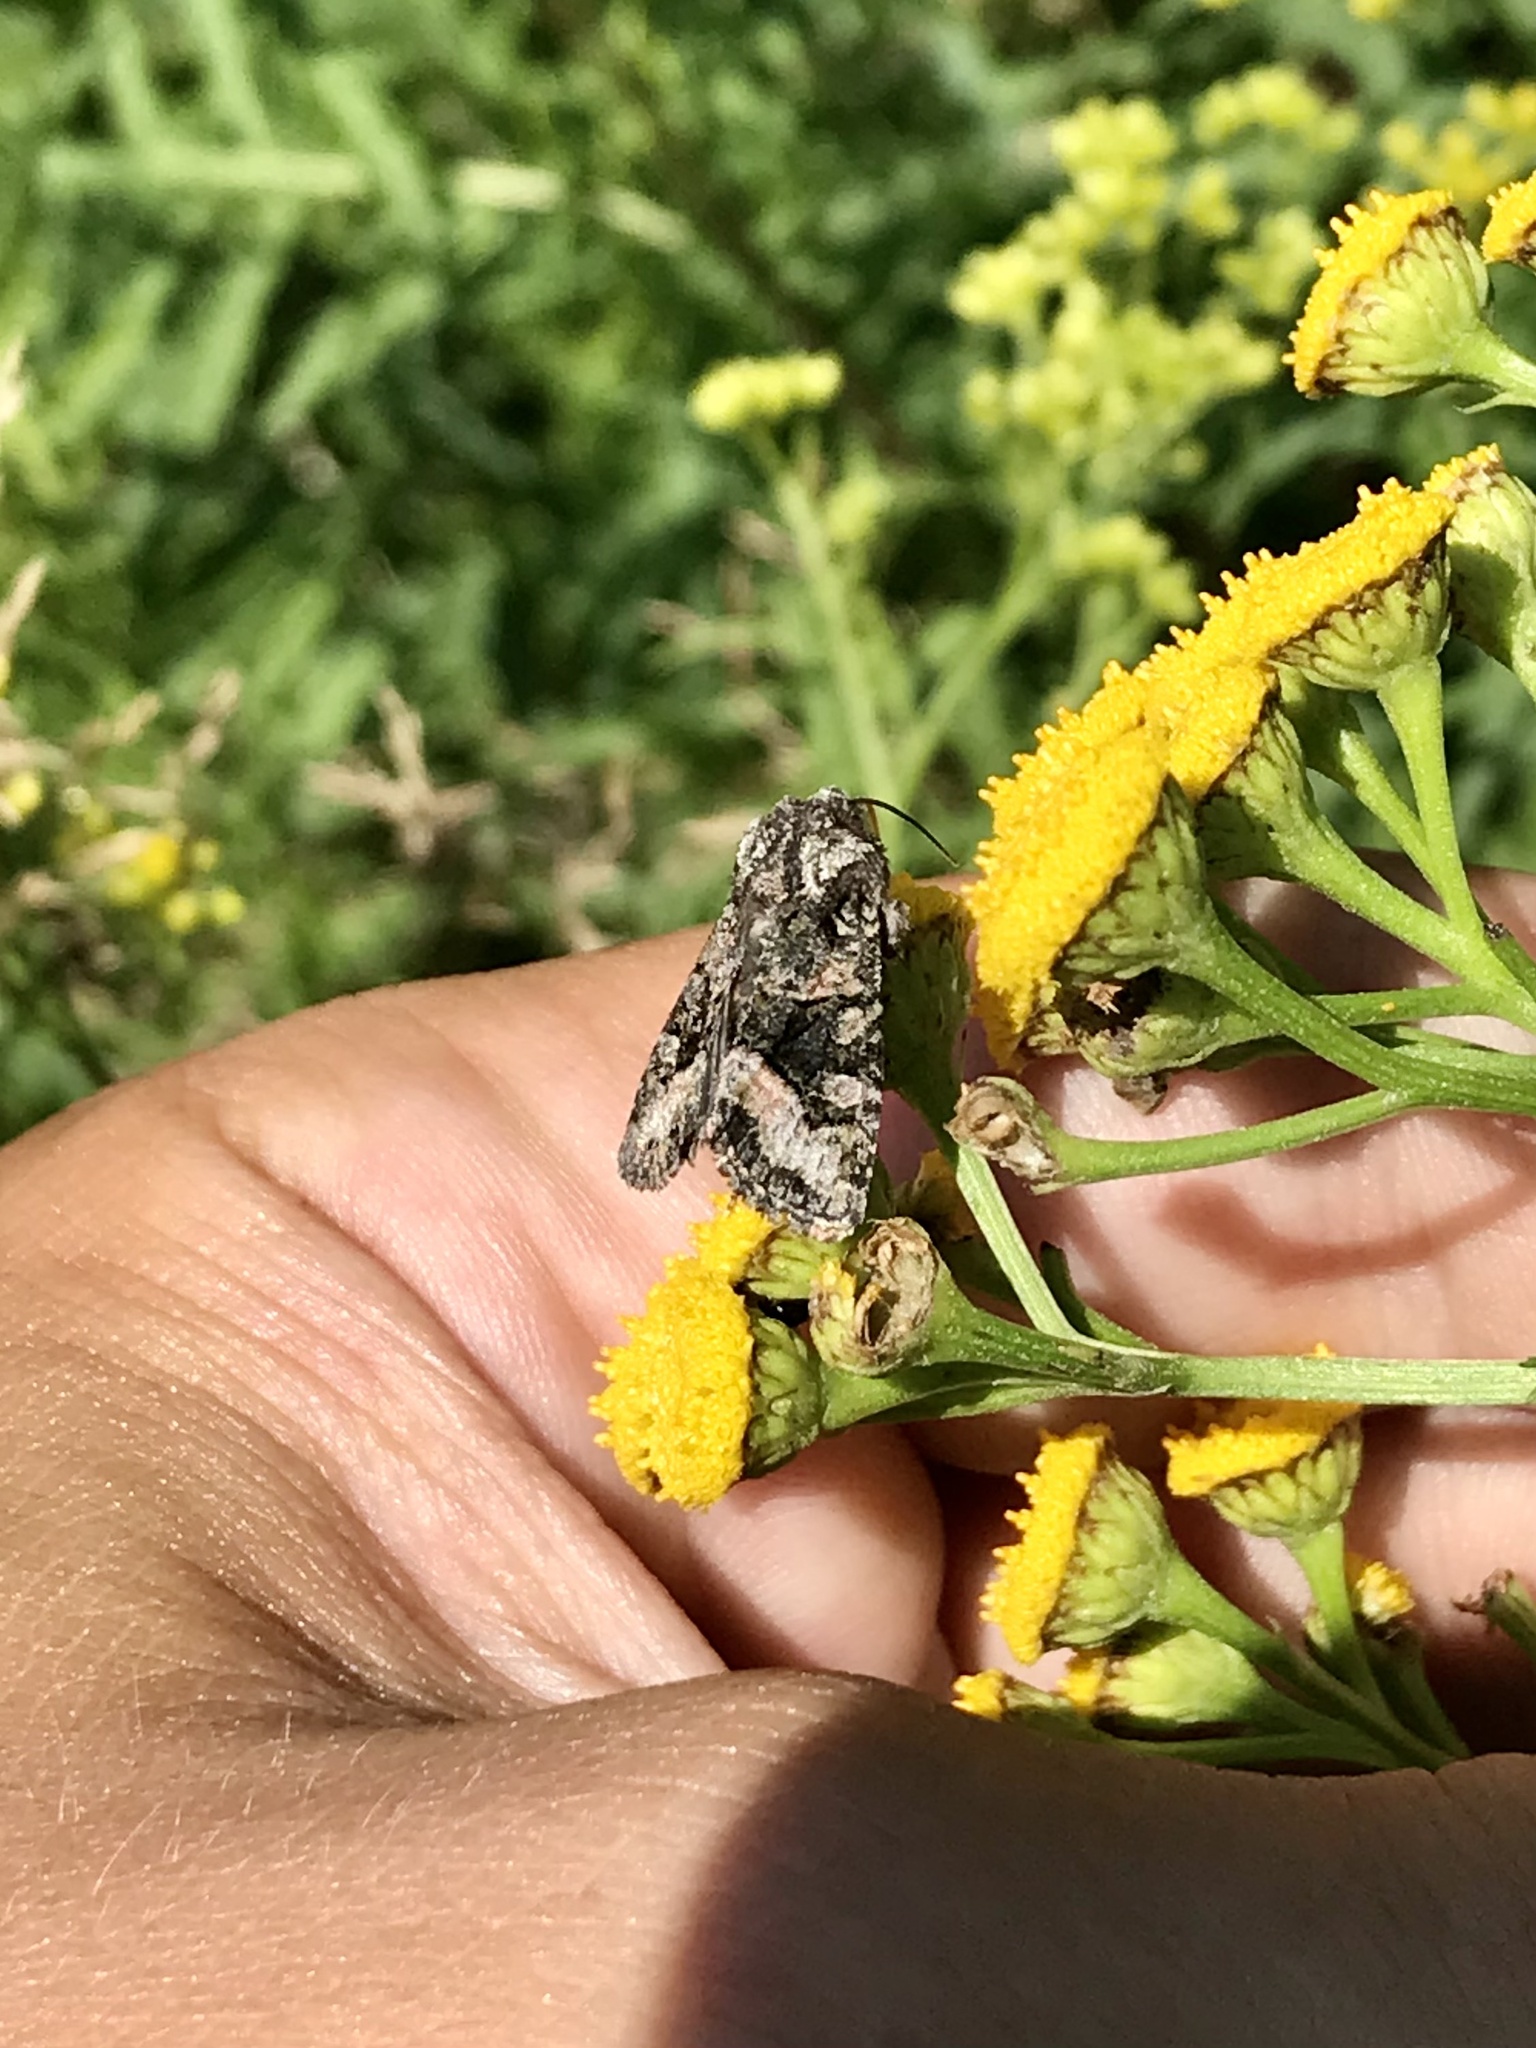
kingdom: Animalia
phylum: Arthropoda
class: Insecta
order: Lepidoptera
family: Noctuidae
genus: Lacinipolia
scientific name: Lacinipolia olivacea
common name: Olive arches moth
